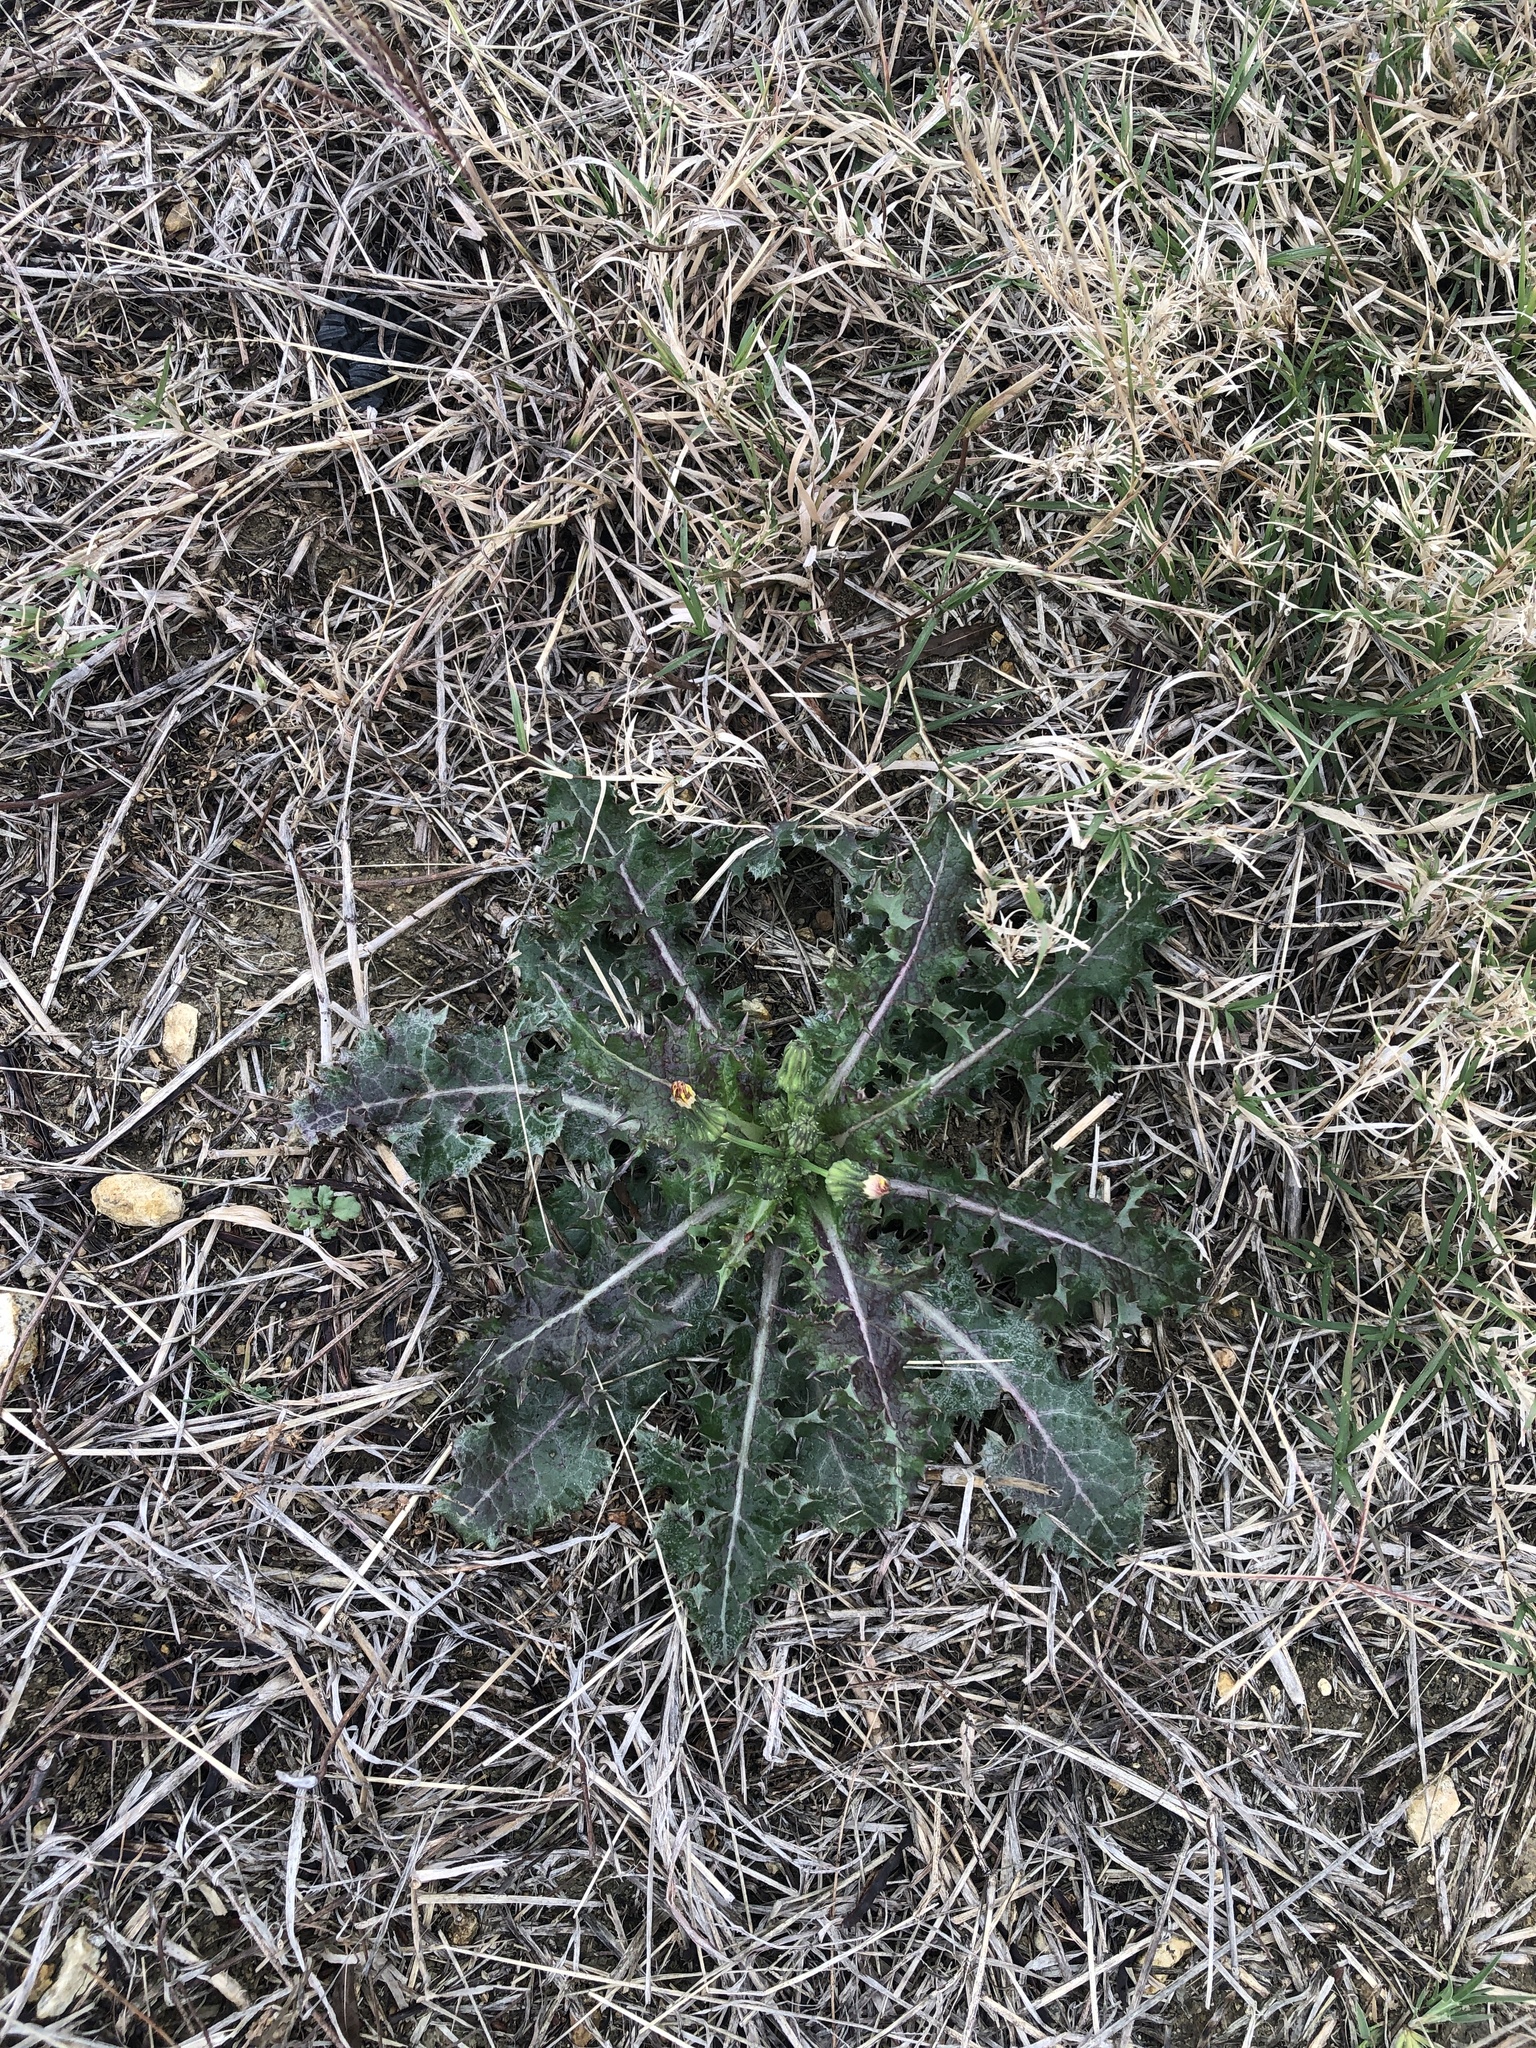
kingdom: Plantae
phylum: Tracheophyta
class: Magnoliopsida
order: Asterales
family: Asteraceae
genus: Sonchus
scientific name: Sonchus asper
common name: Prickly sow-thistle
